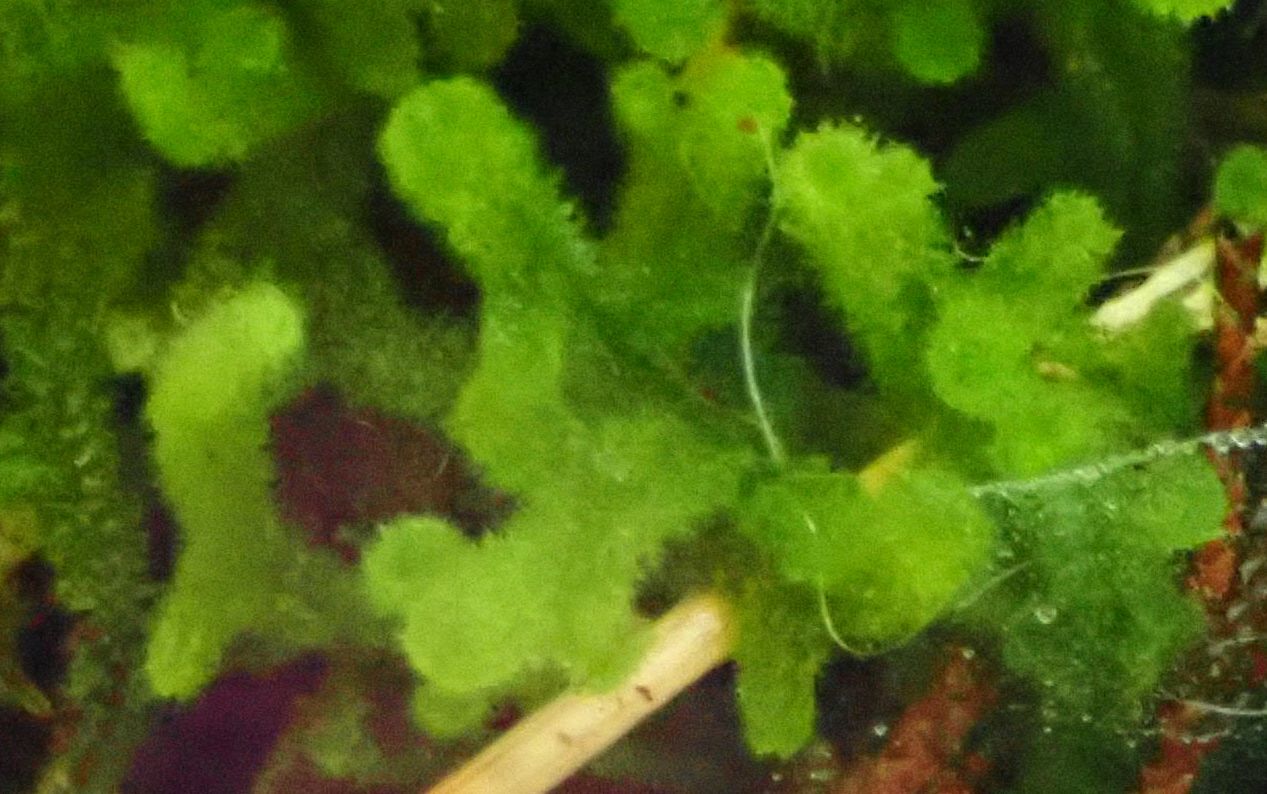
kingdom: Plantae
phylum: Marchantiophyta
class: Jungermanniopsida
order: Jungermanniales
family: Trichocoleaceae
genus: Leiomitra
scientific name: Leiomitra lanata
